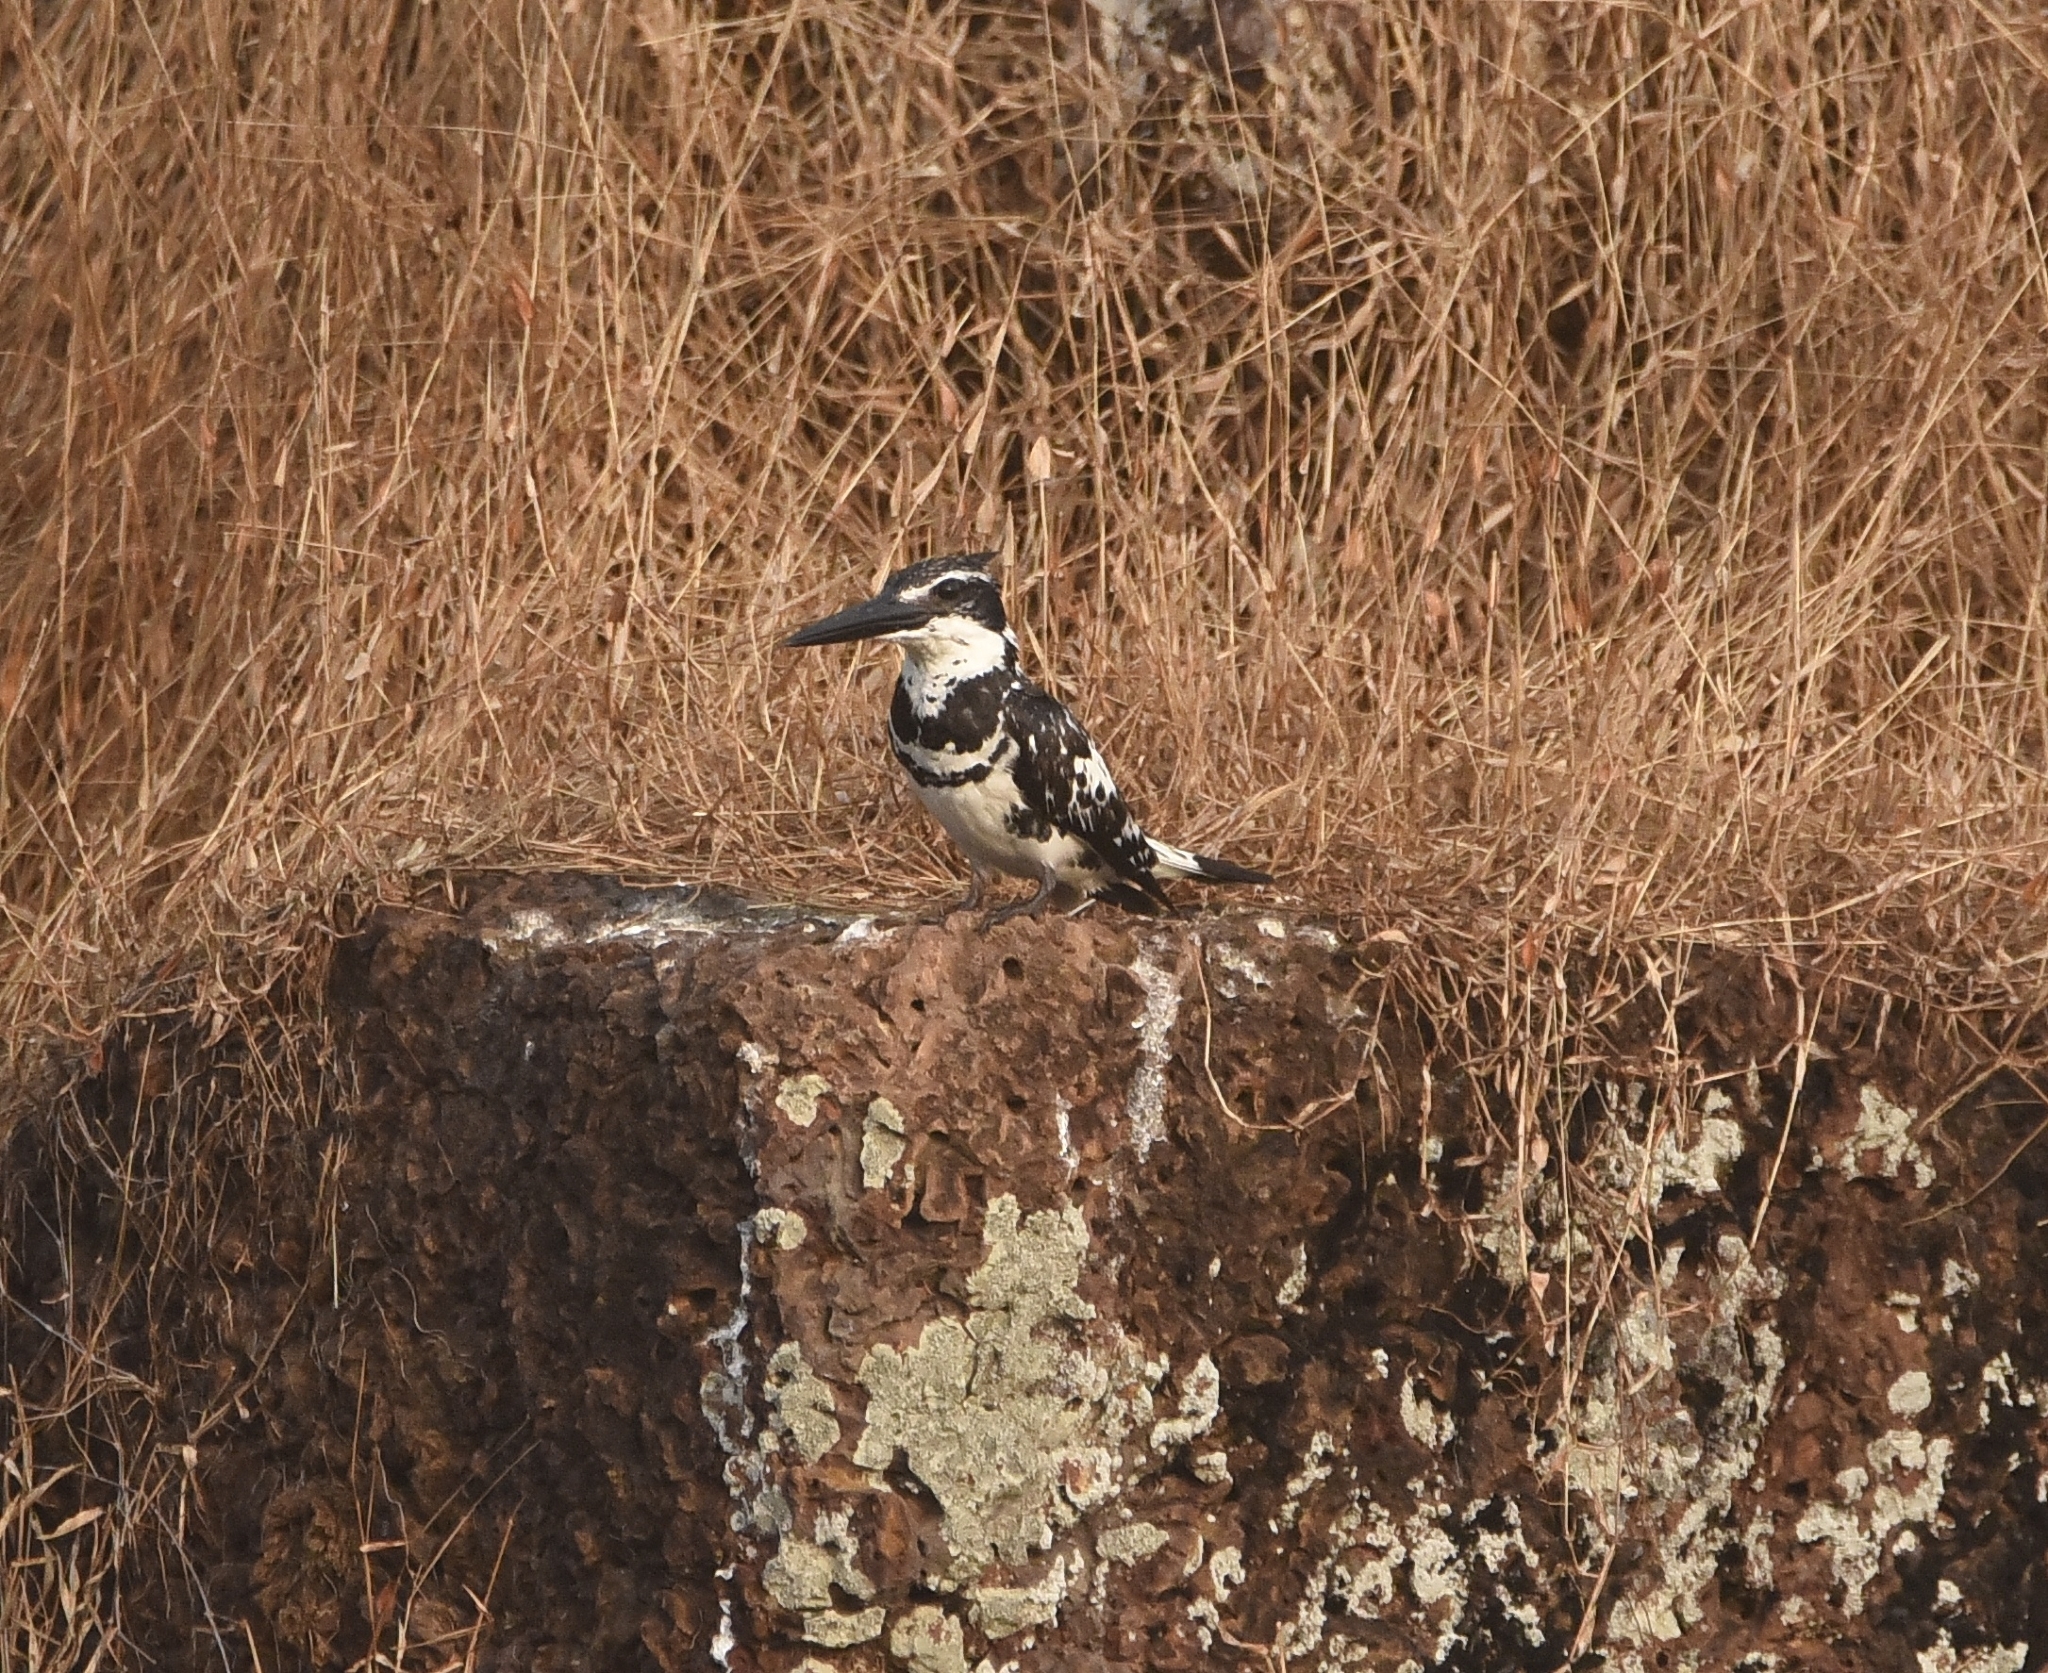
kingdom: Animalia
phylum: Chordata
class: Aves
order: Coraciiformes
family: Alcedinidae
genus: Ceryle
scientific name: Ceryle rudis
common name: Pied kingfisher
